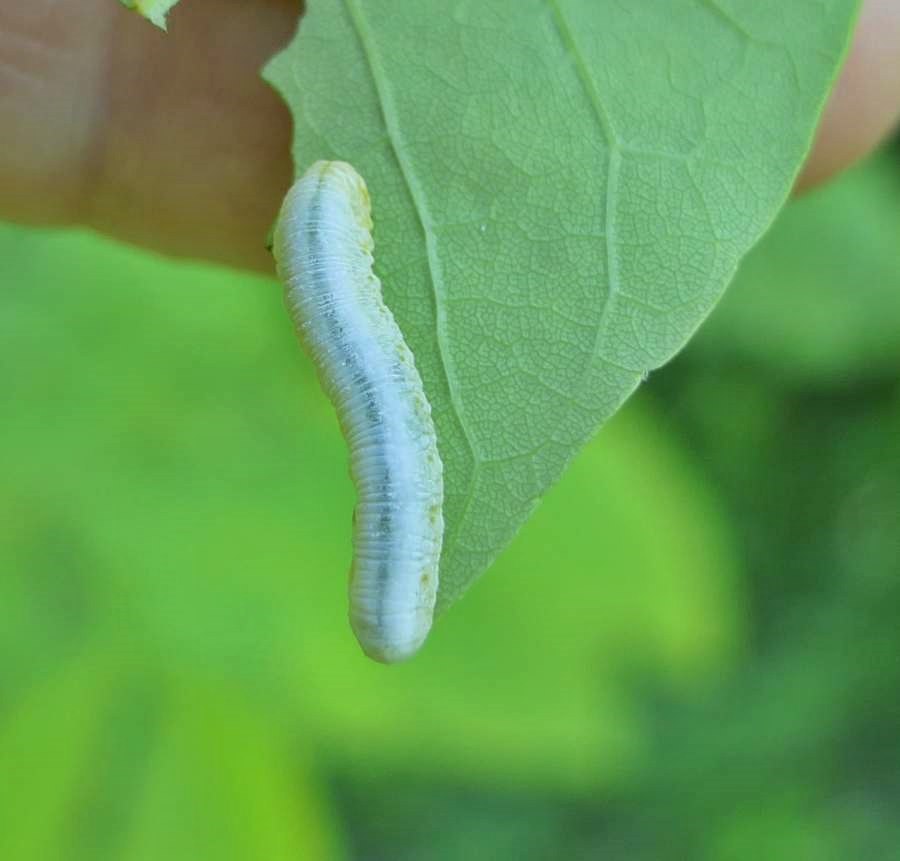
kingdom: Animalia
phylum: Arthropoda
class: Insecta
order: Hymenoptera
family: Tenthredinidae
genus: Tomostethus
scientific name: Tomostethus multicinctus
